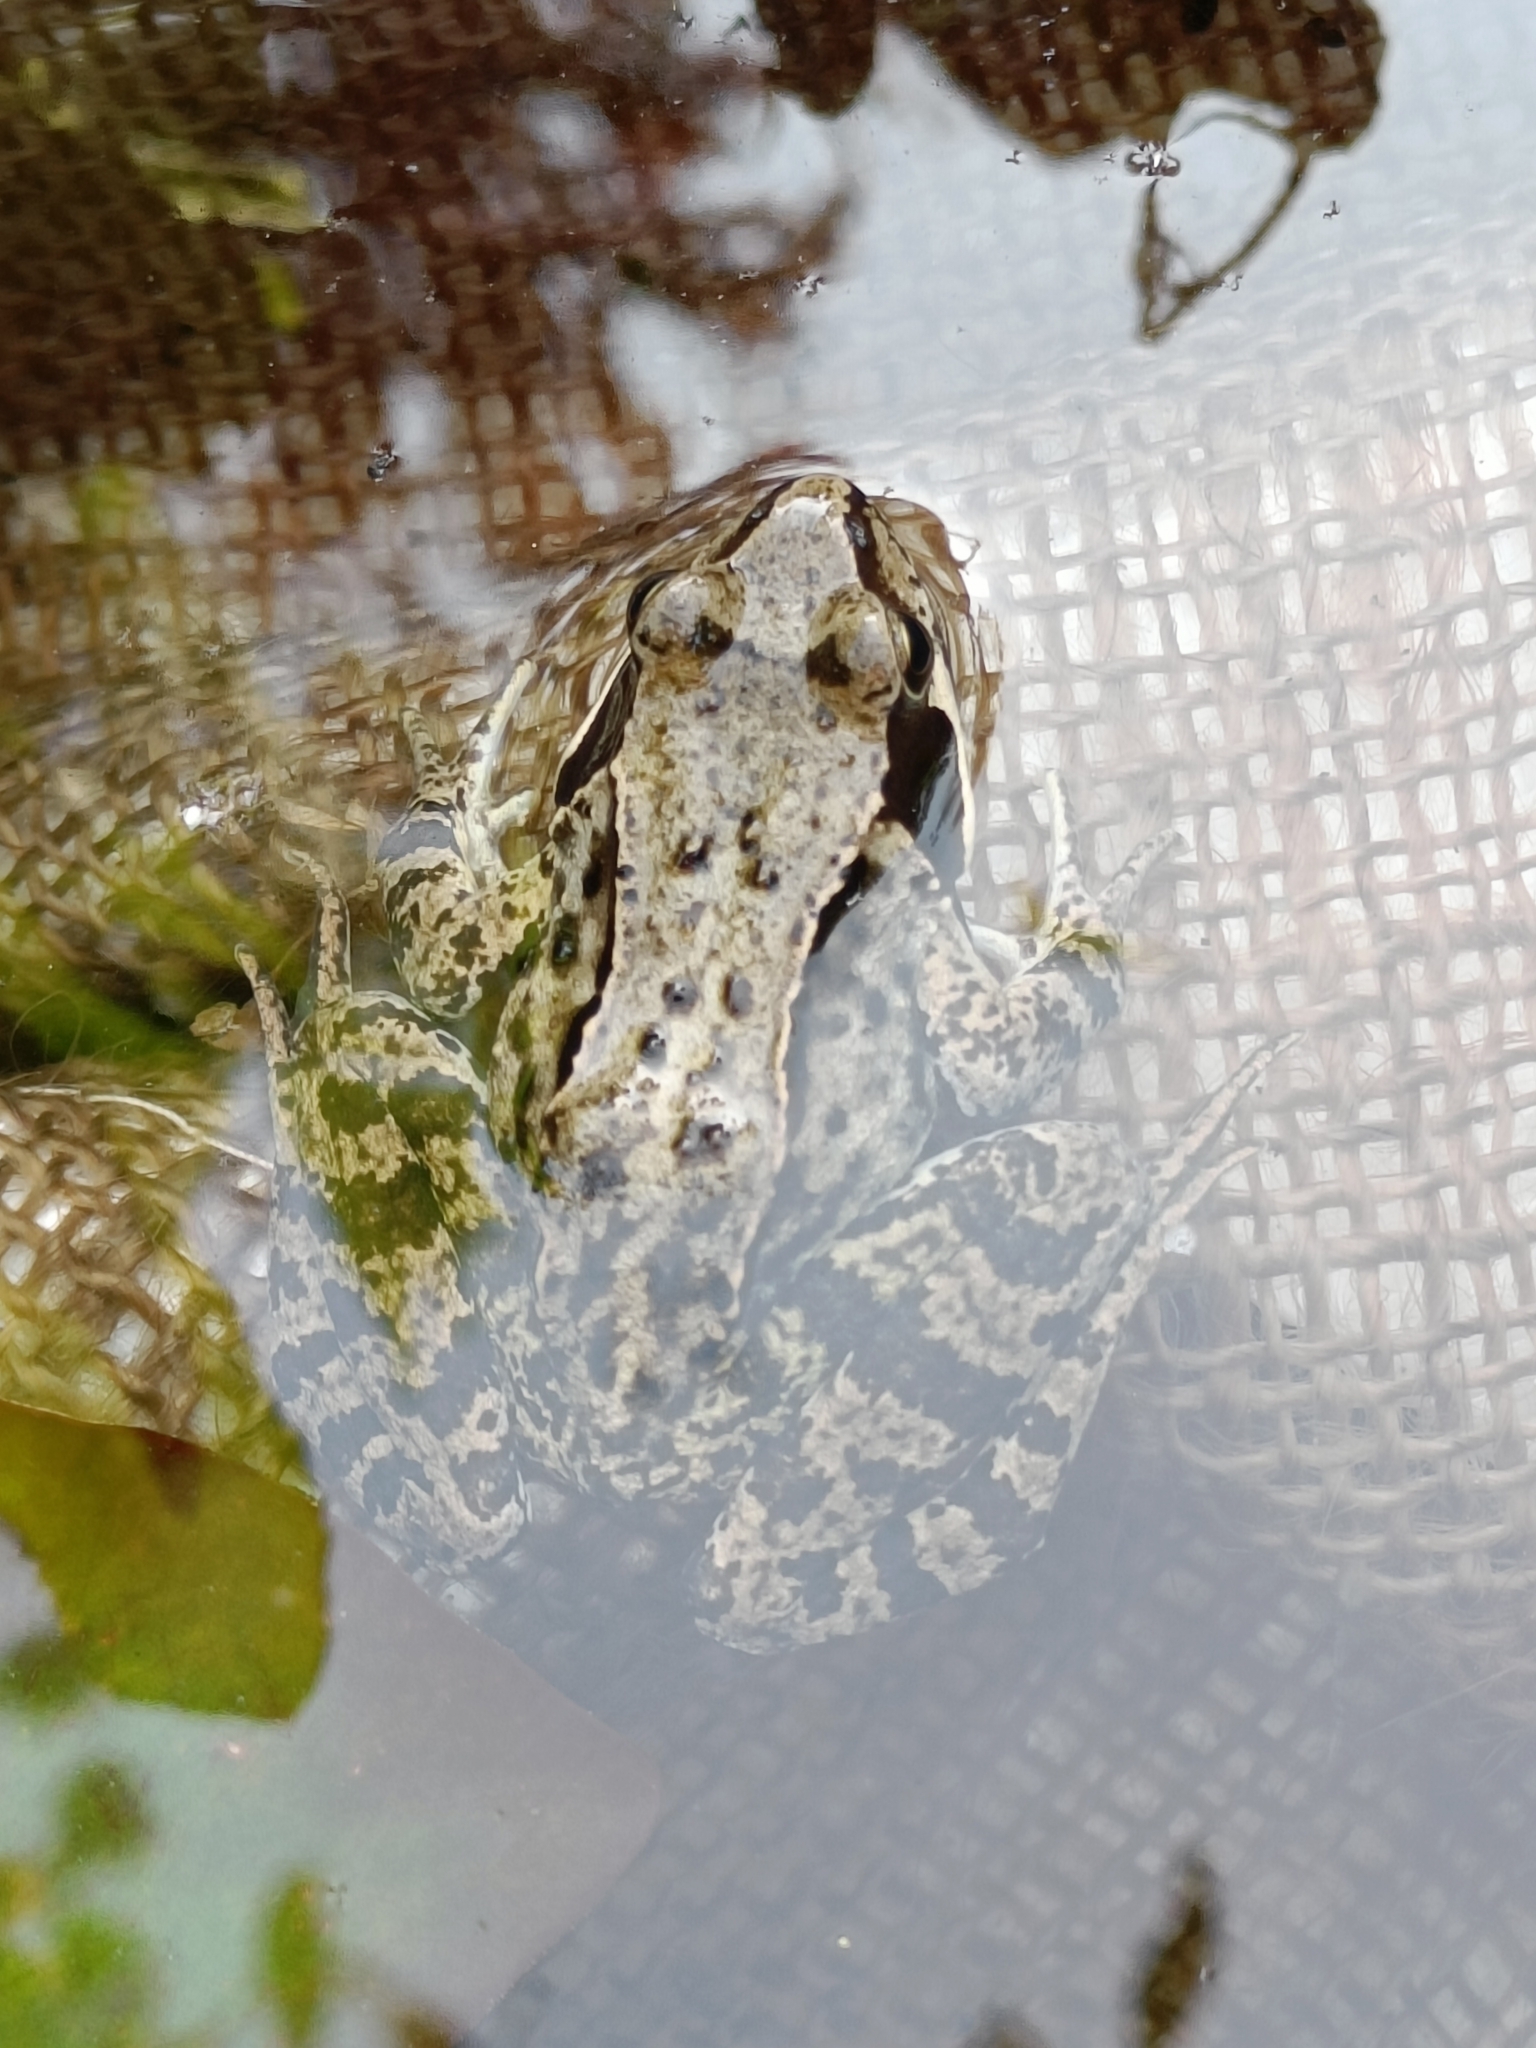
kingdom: Animalia
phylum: Chordata
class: Amphibia
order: Anura
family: Ranidae
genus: Rana
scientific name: Rana temporaria
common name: Common frog
